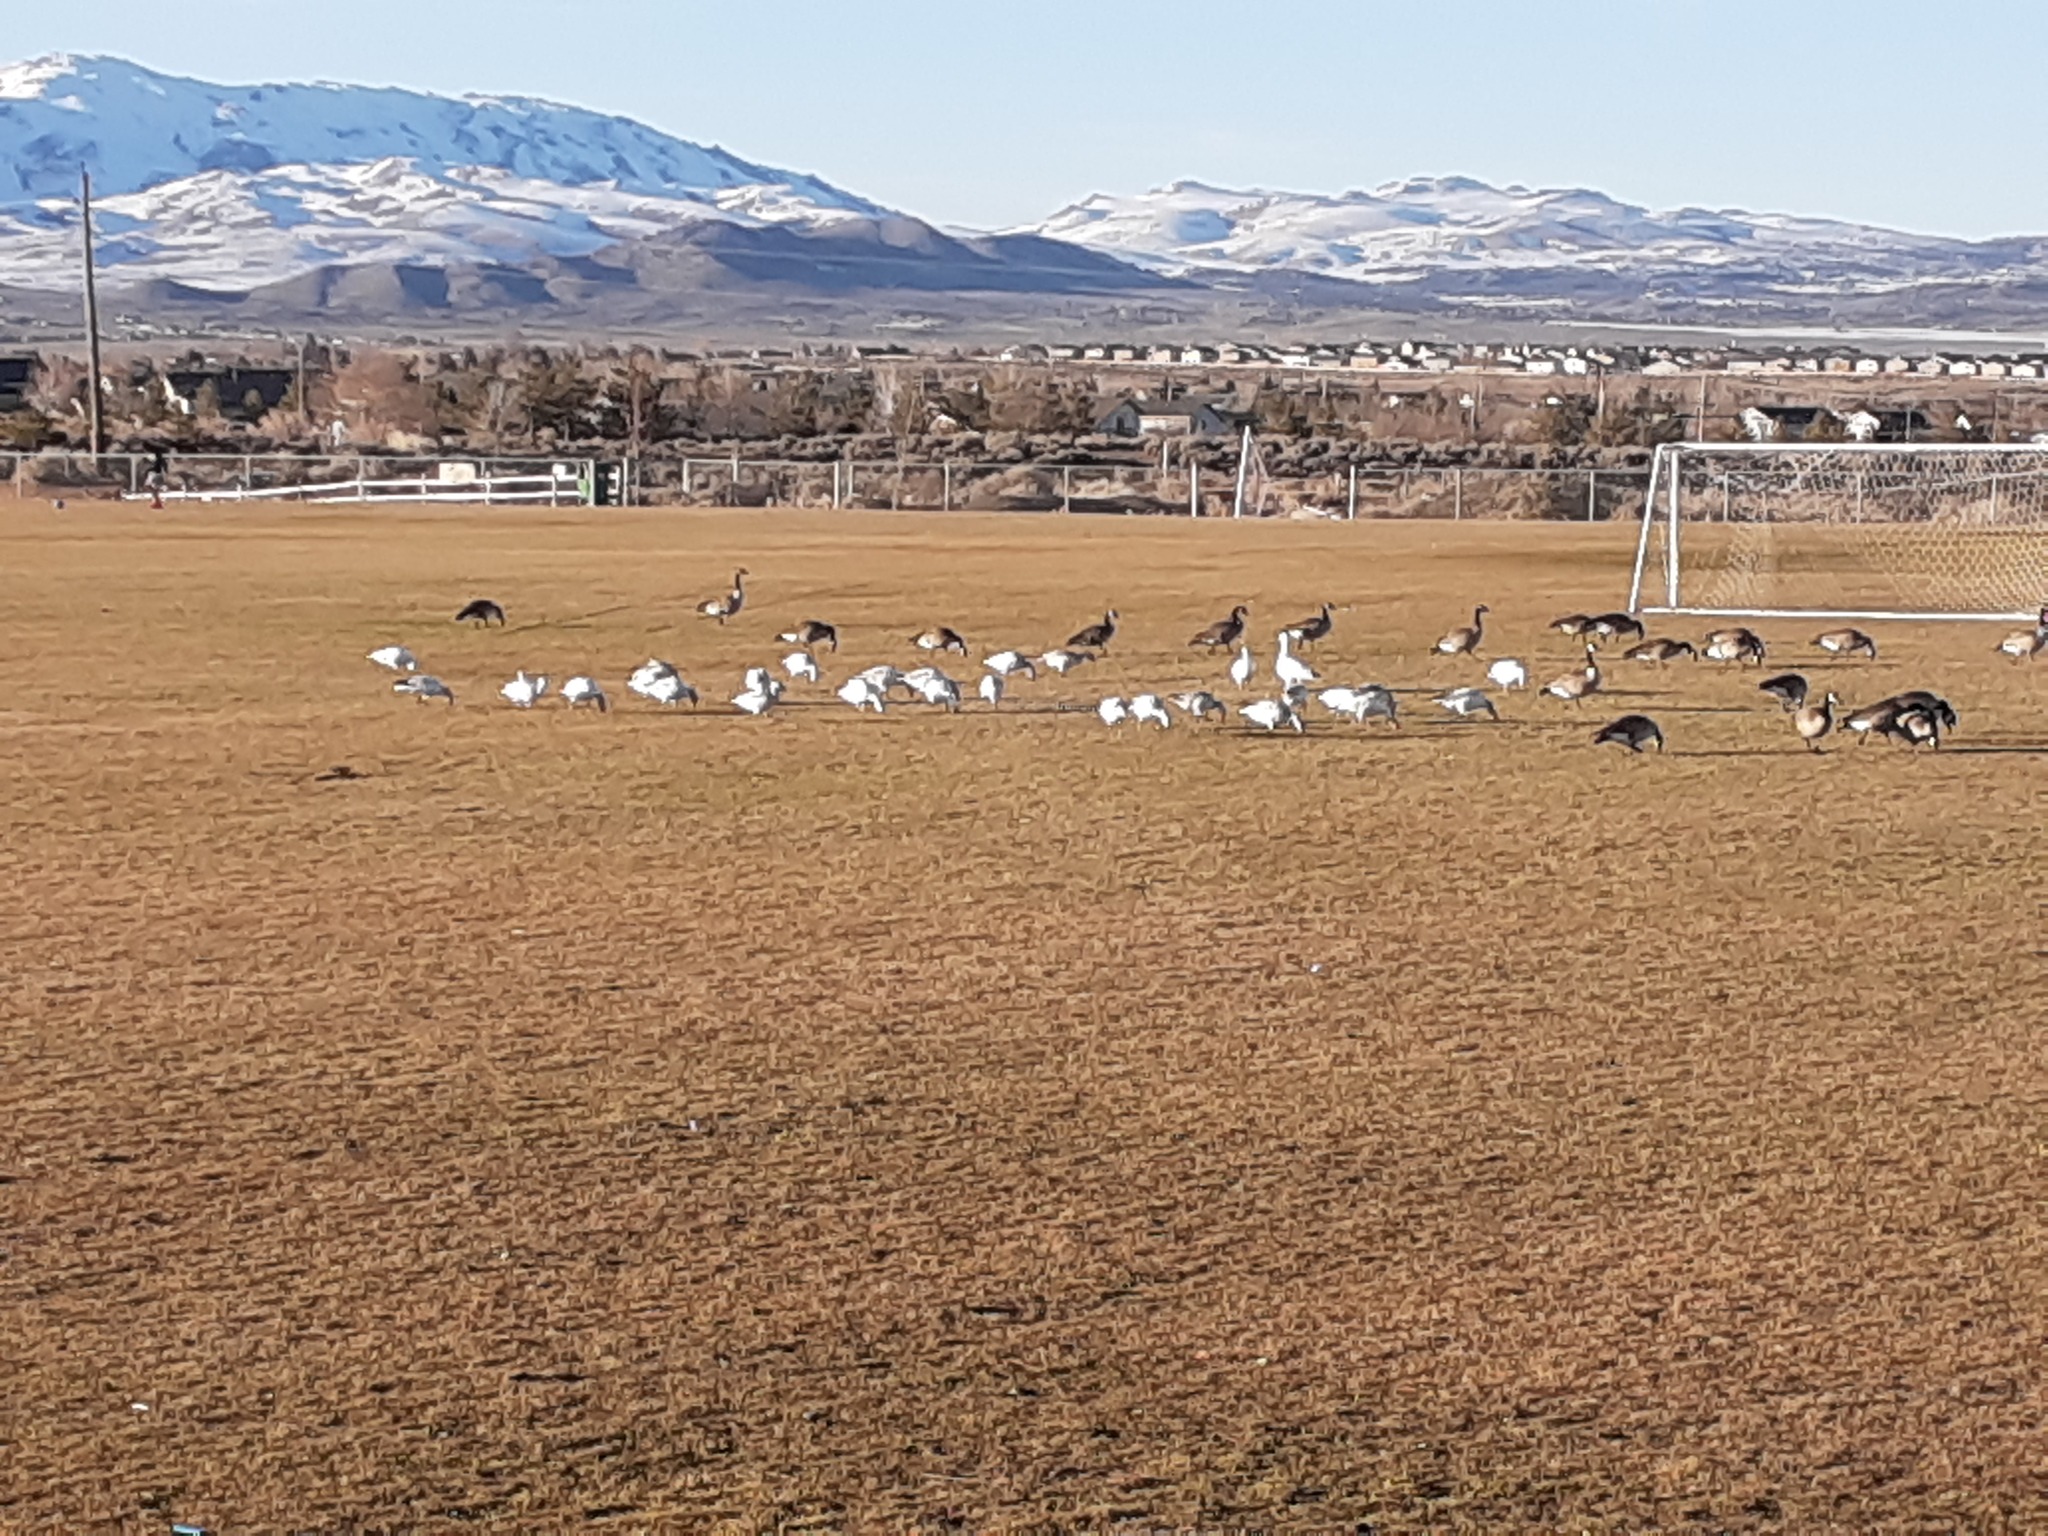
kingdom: Animalia
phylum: Chordata
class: Aves
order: Anseriformes
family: Anatidae
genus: Anser
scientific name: Anser caerulescens
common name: Snow goose
